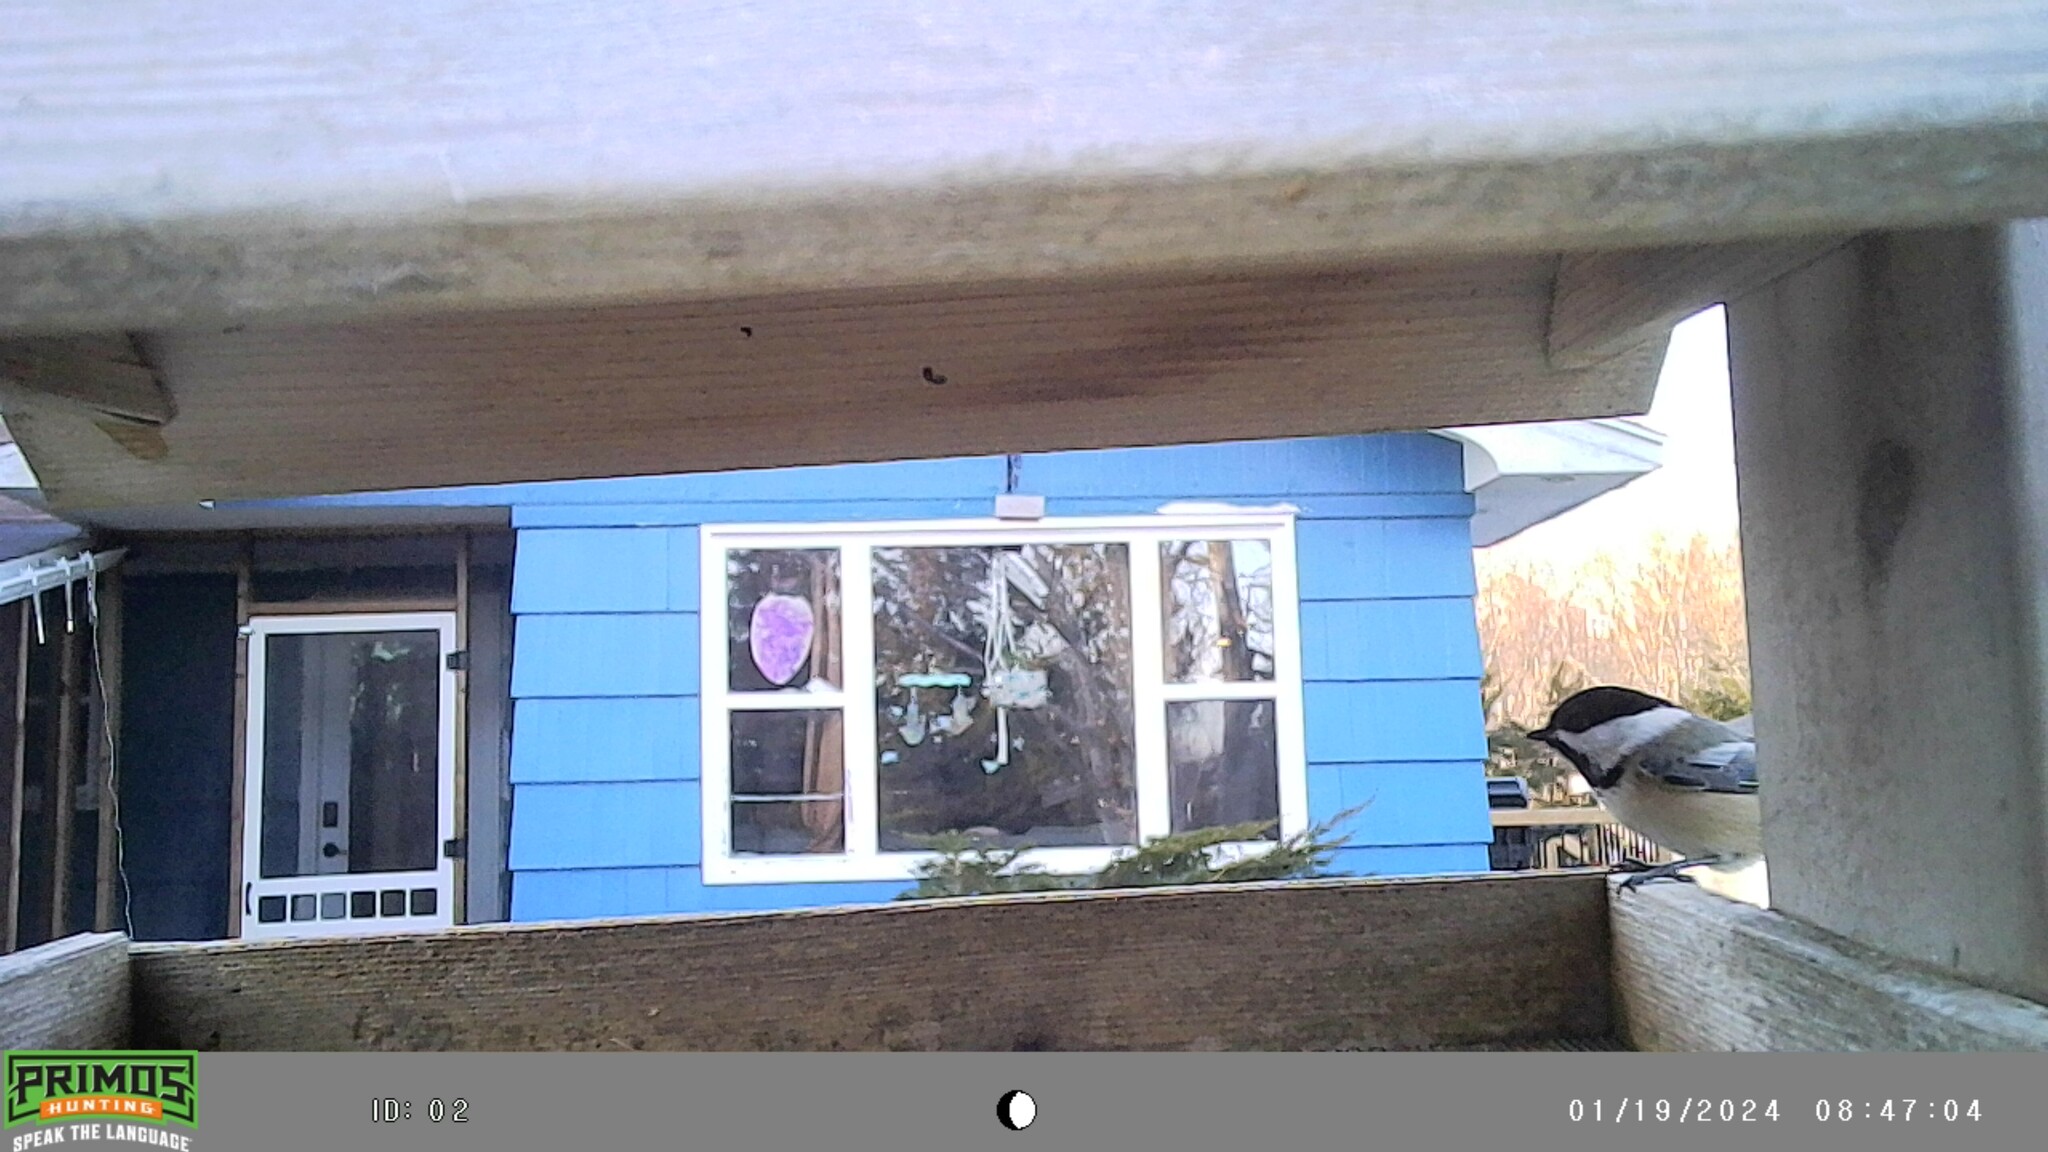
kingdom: Animalia
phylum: Chordata
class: Aves
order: Passeriformes
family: Paridae
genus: Poecile
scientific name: Poecile atricapillus
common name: Black-capped chickadee
